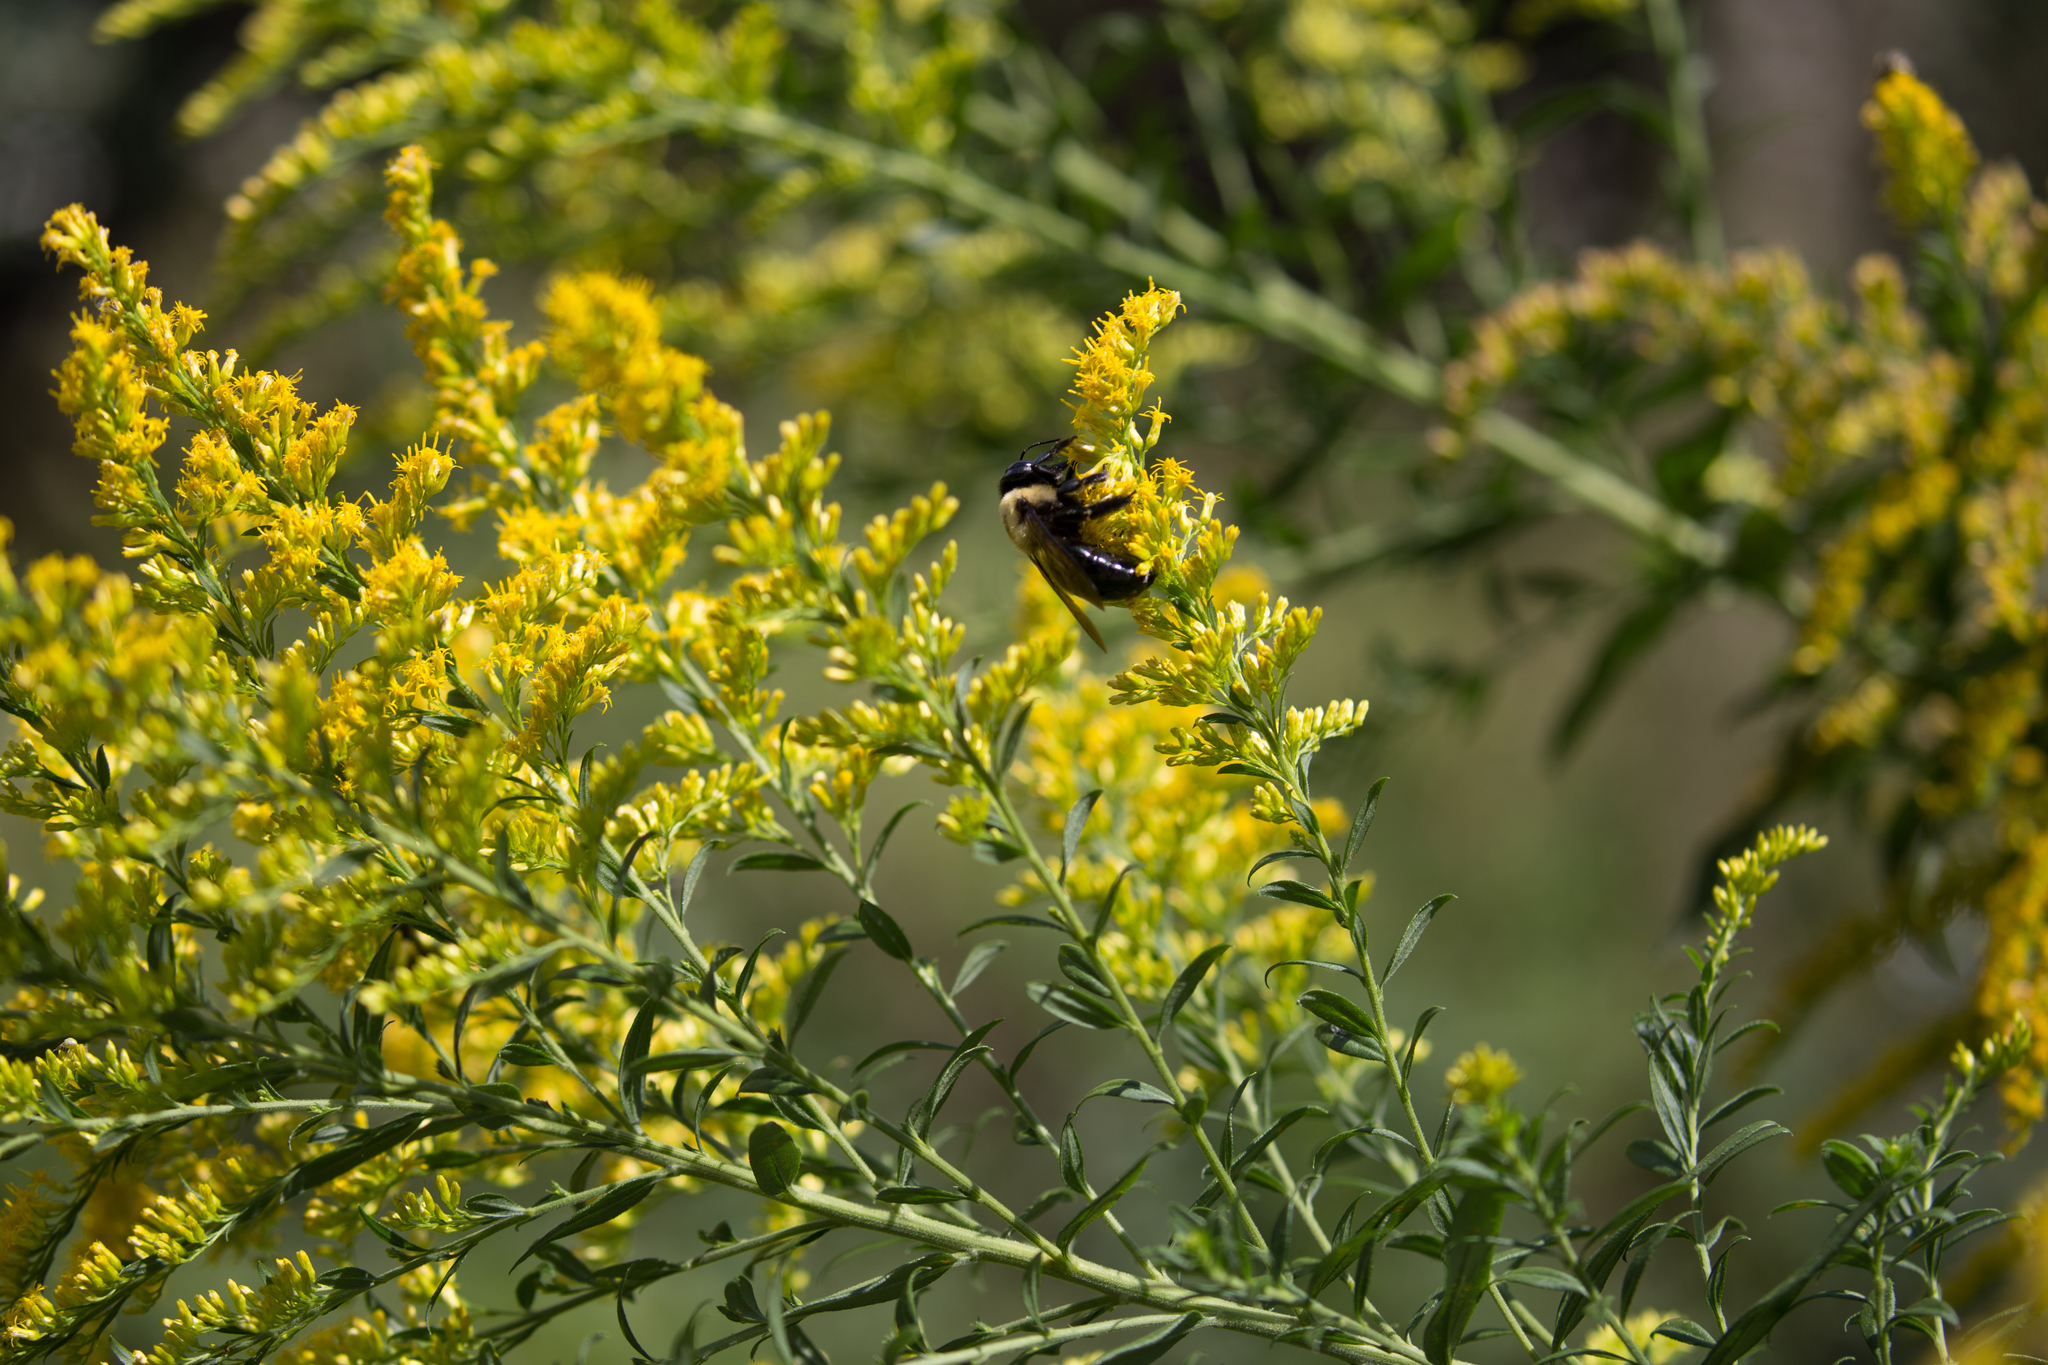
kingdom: Animalia
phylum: Arthropoda
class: Insecta
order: Hymenoptera
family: Apidae
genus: Xylocopa
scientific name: Xylocopa virginica
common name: Carpenter bee
